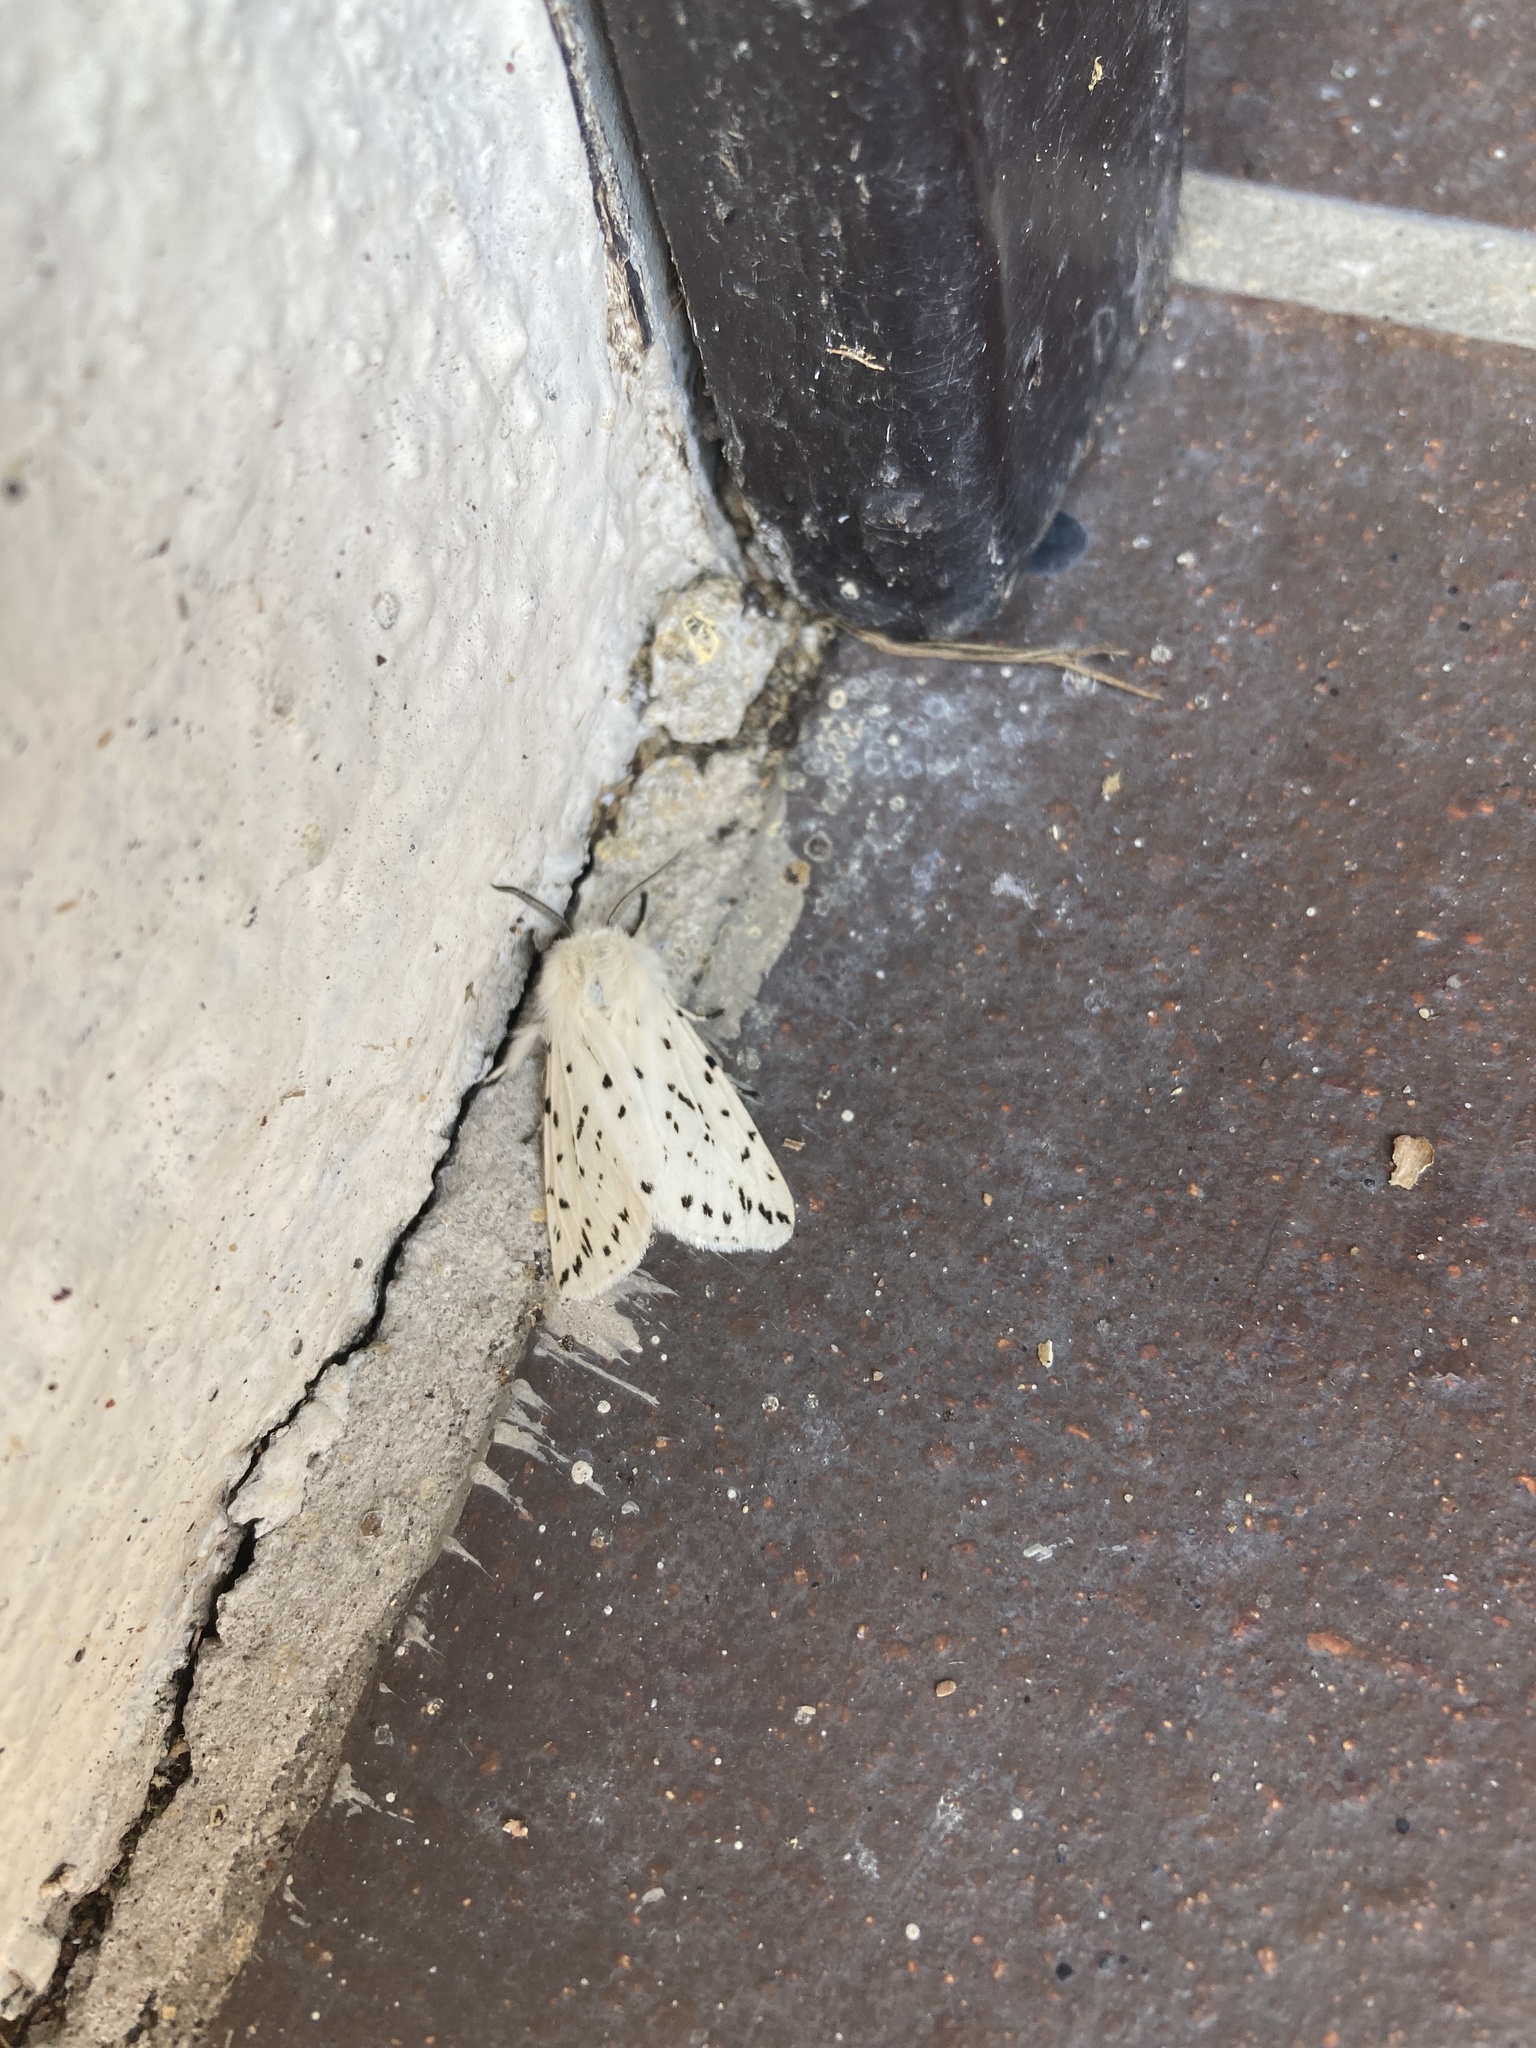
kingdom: Animalia
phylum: Arthropoda
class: Insecta
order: Lepidoptera
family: Erebidae
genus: Spilosoma
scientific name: Spilosoma lubricipeda
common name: White ermine
